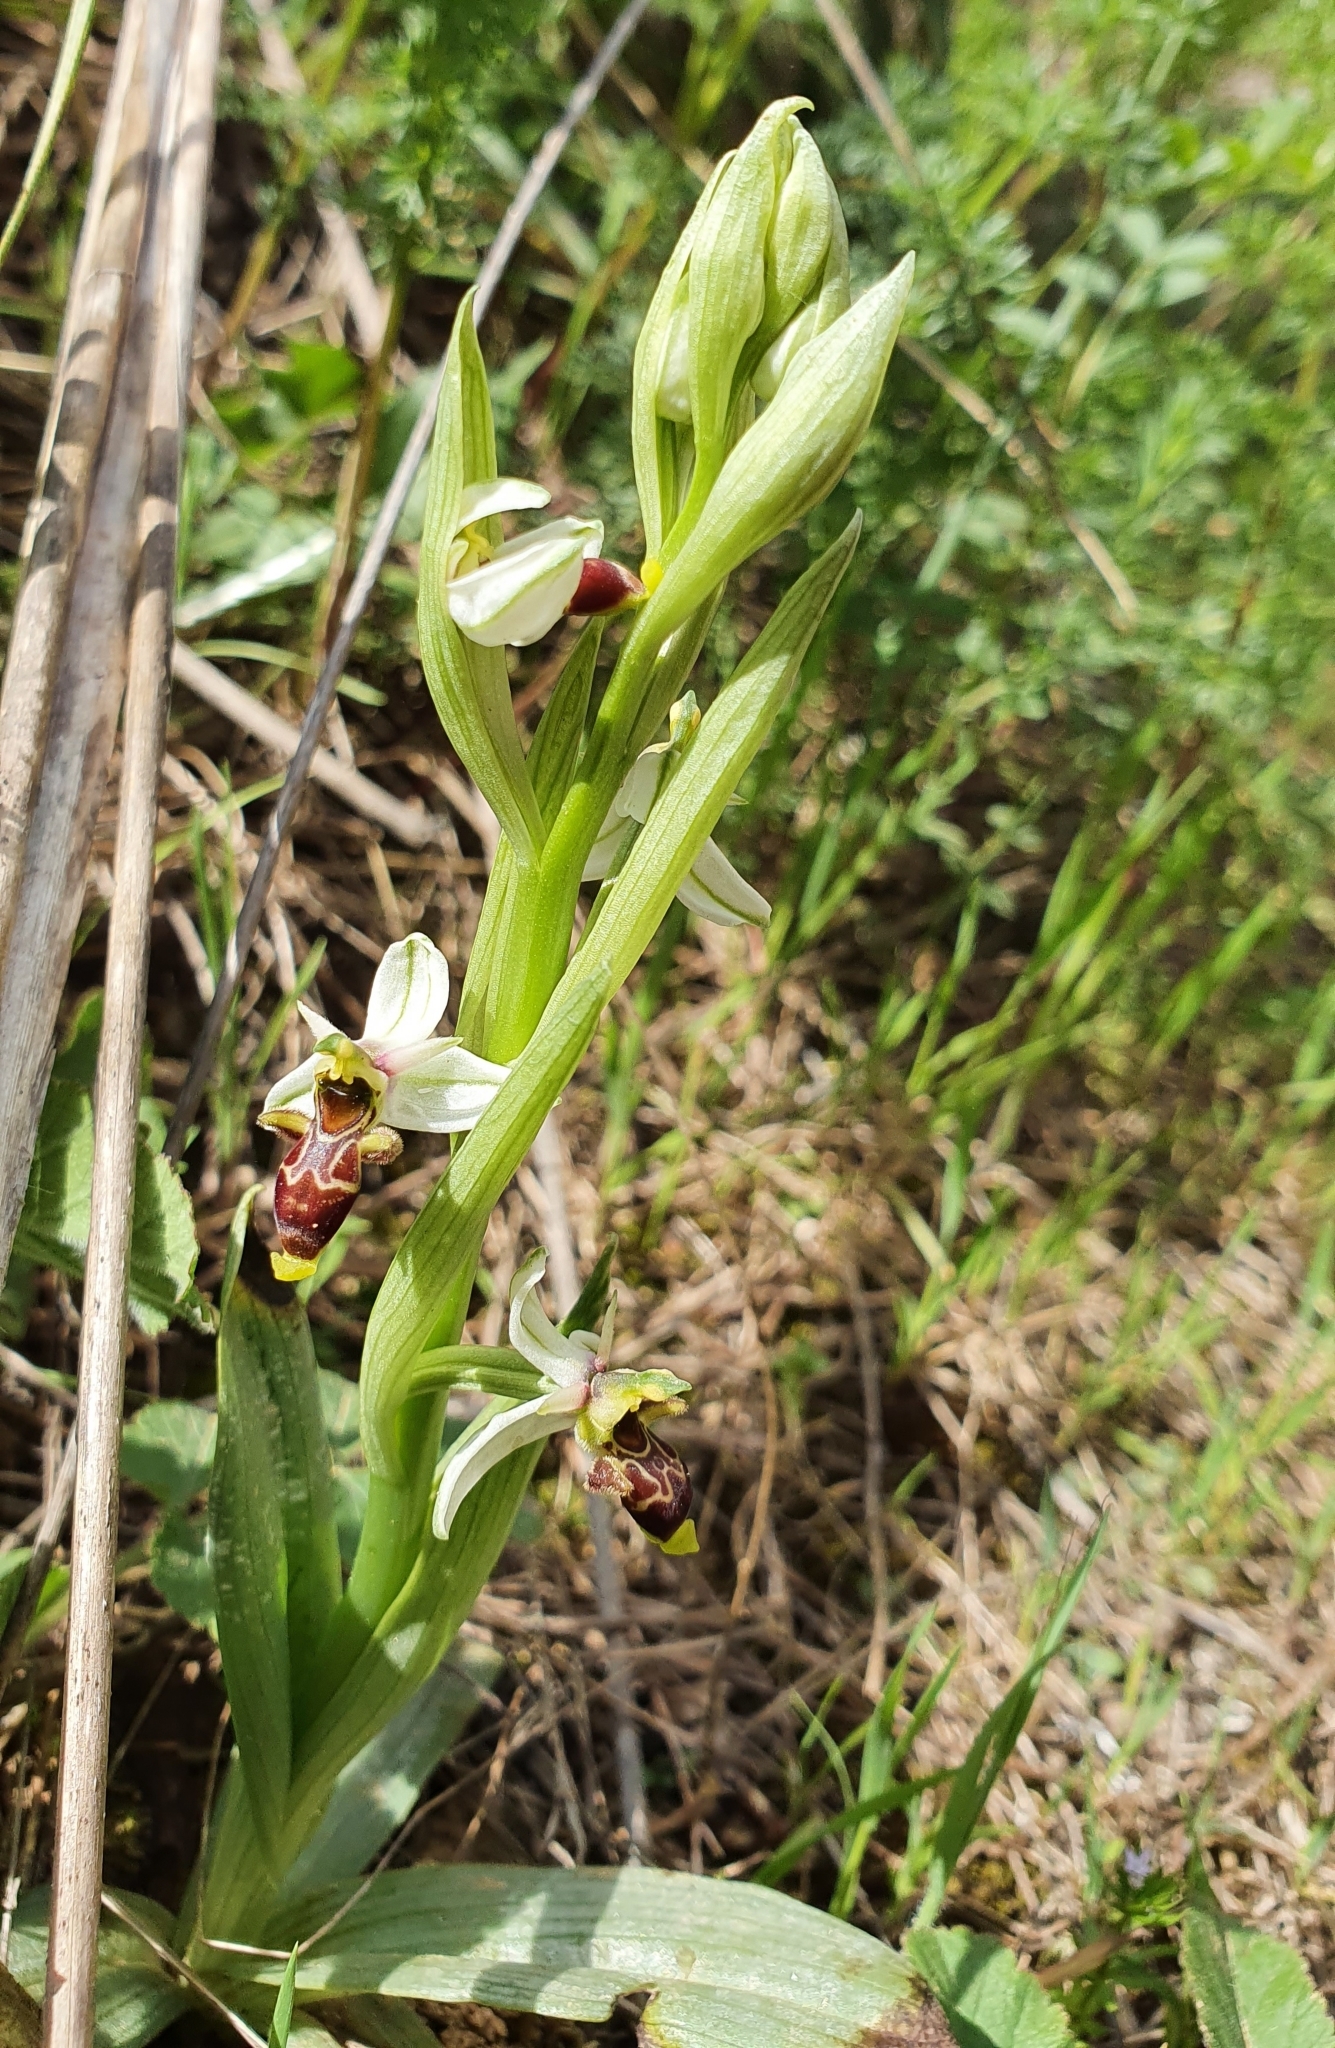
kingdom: Plantae
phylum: Tracheophyta
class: Liliopsida
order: Asparagales
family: Orchidaceae
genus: Ophrys
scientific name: Ophrys scolopax
